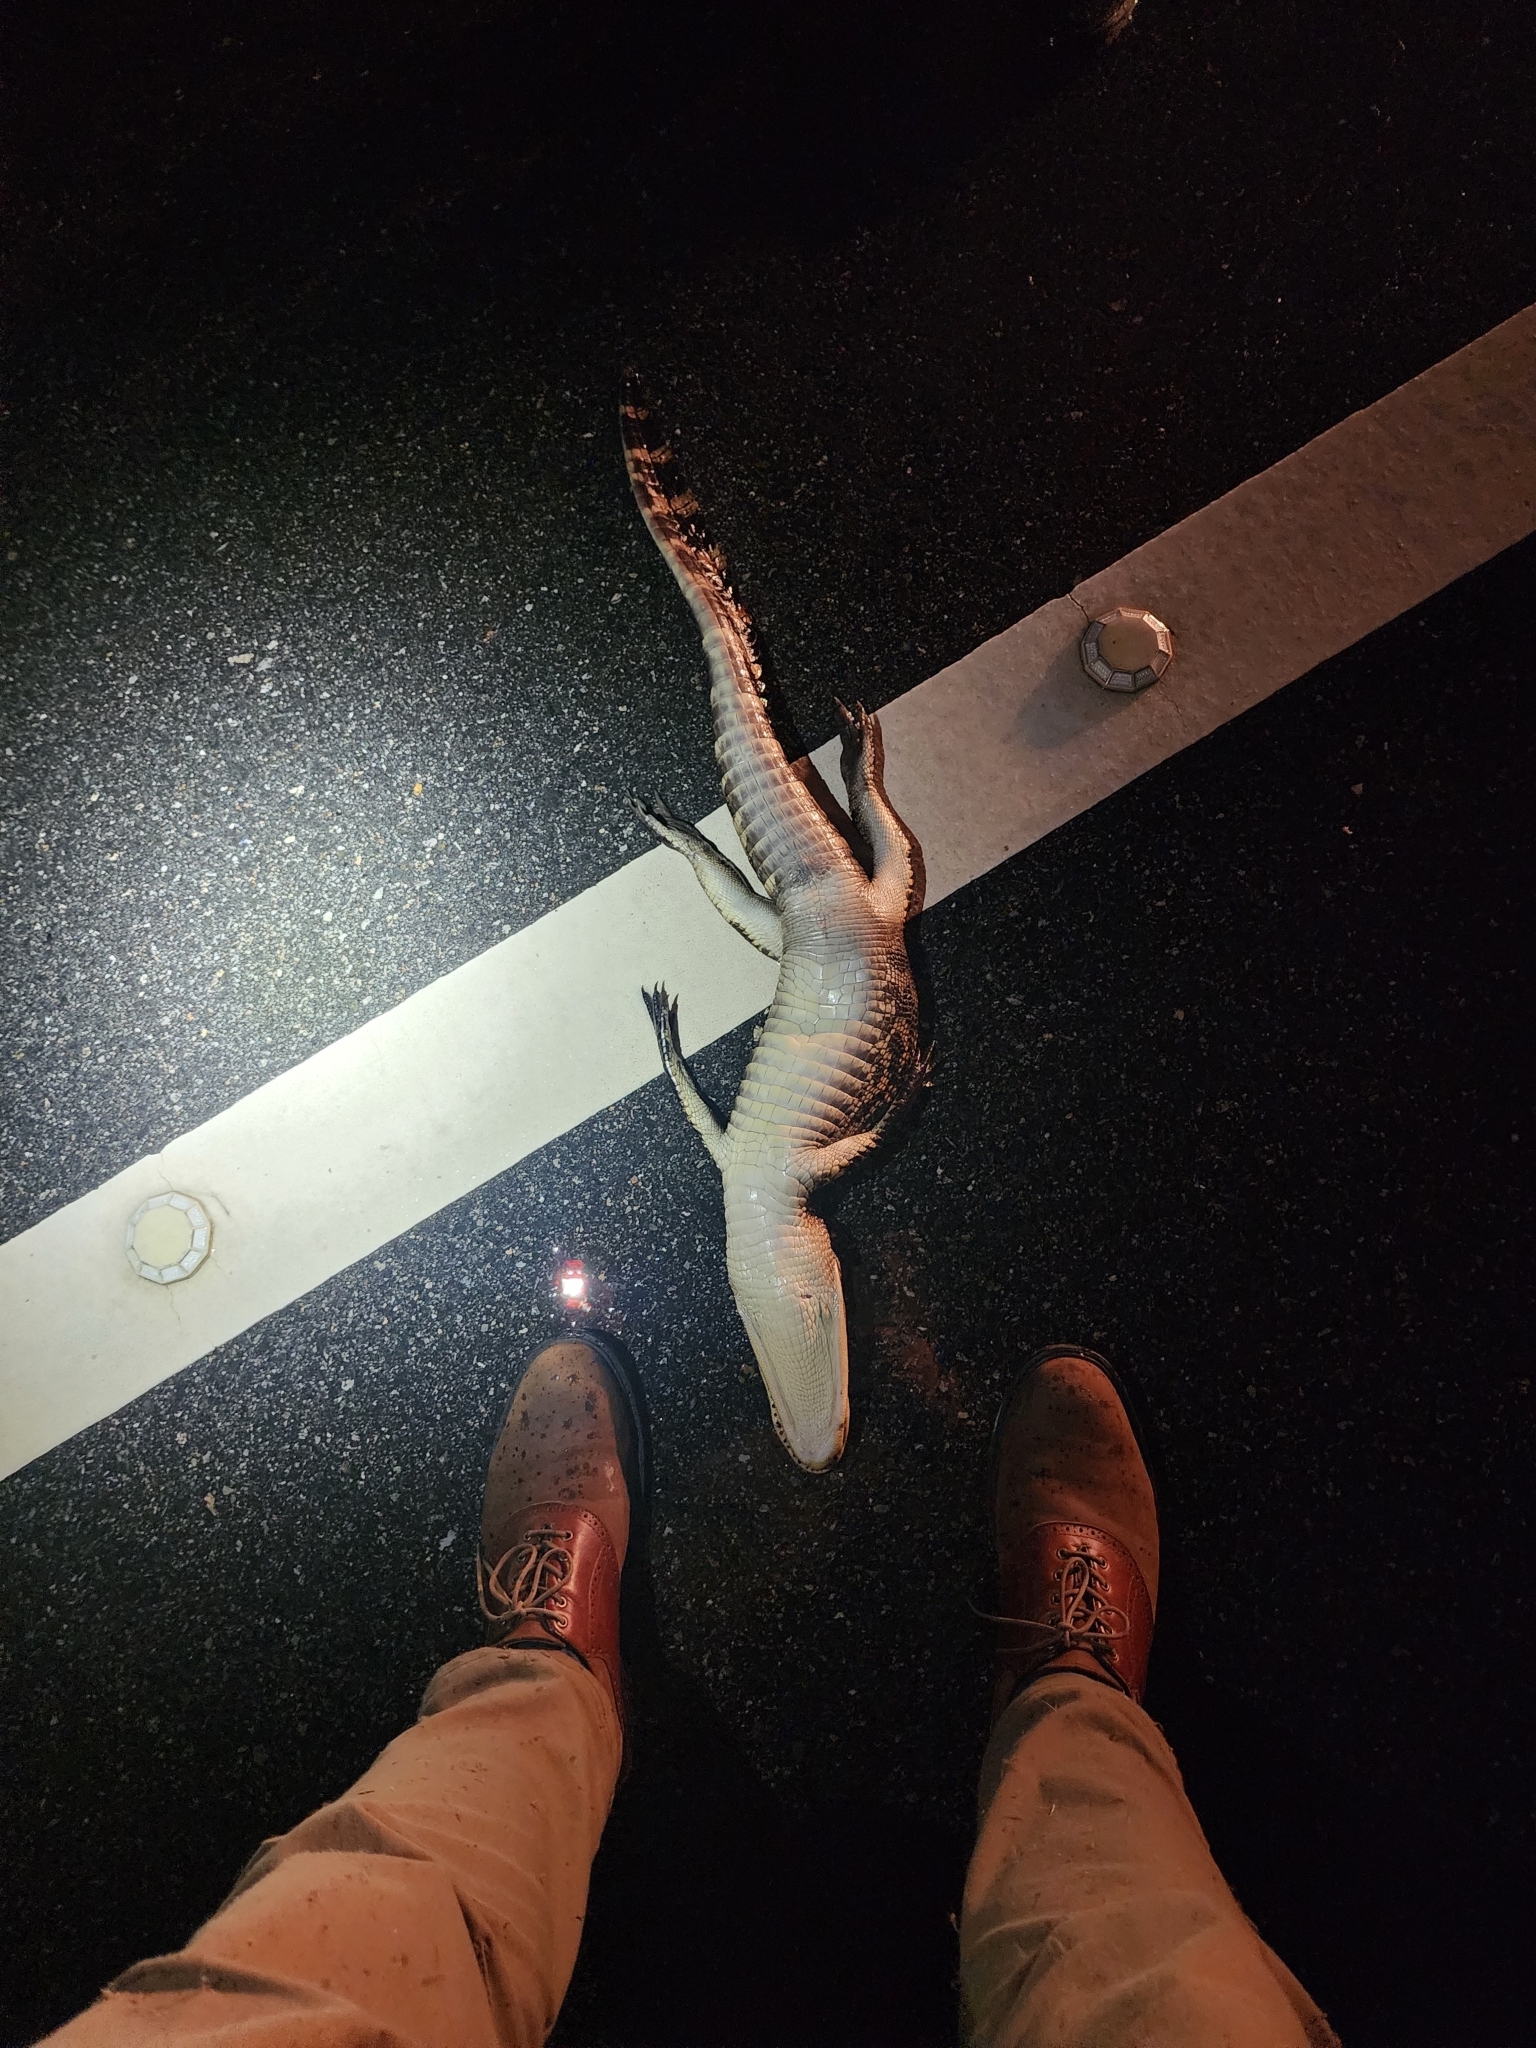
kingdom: Animalia
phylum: Chordata
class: Crocodylia
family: Alligatoridae
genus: Alligator
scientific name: Alligator mississippiensis
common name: American alligator
